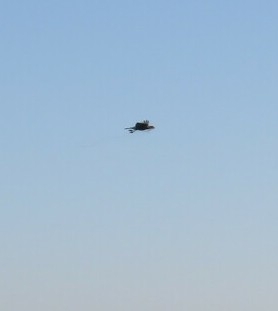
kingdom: Animalia
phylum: Chordata
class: Aves
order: Falconiformes
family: Falconidae
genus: Caracara
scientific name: Caracara plancus
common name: Southern caracara
